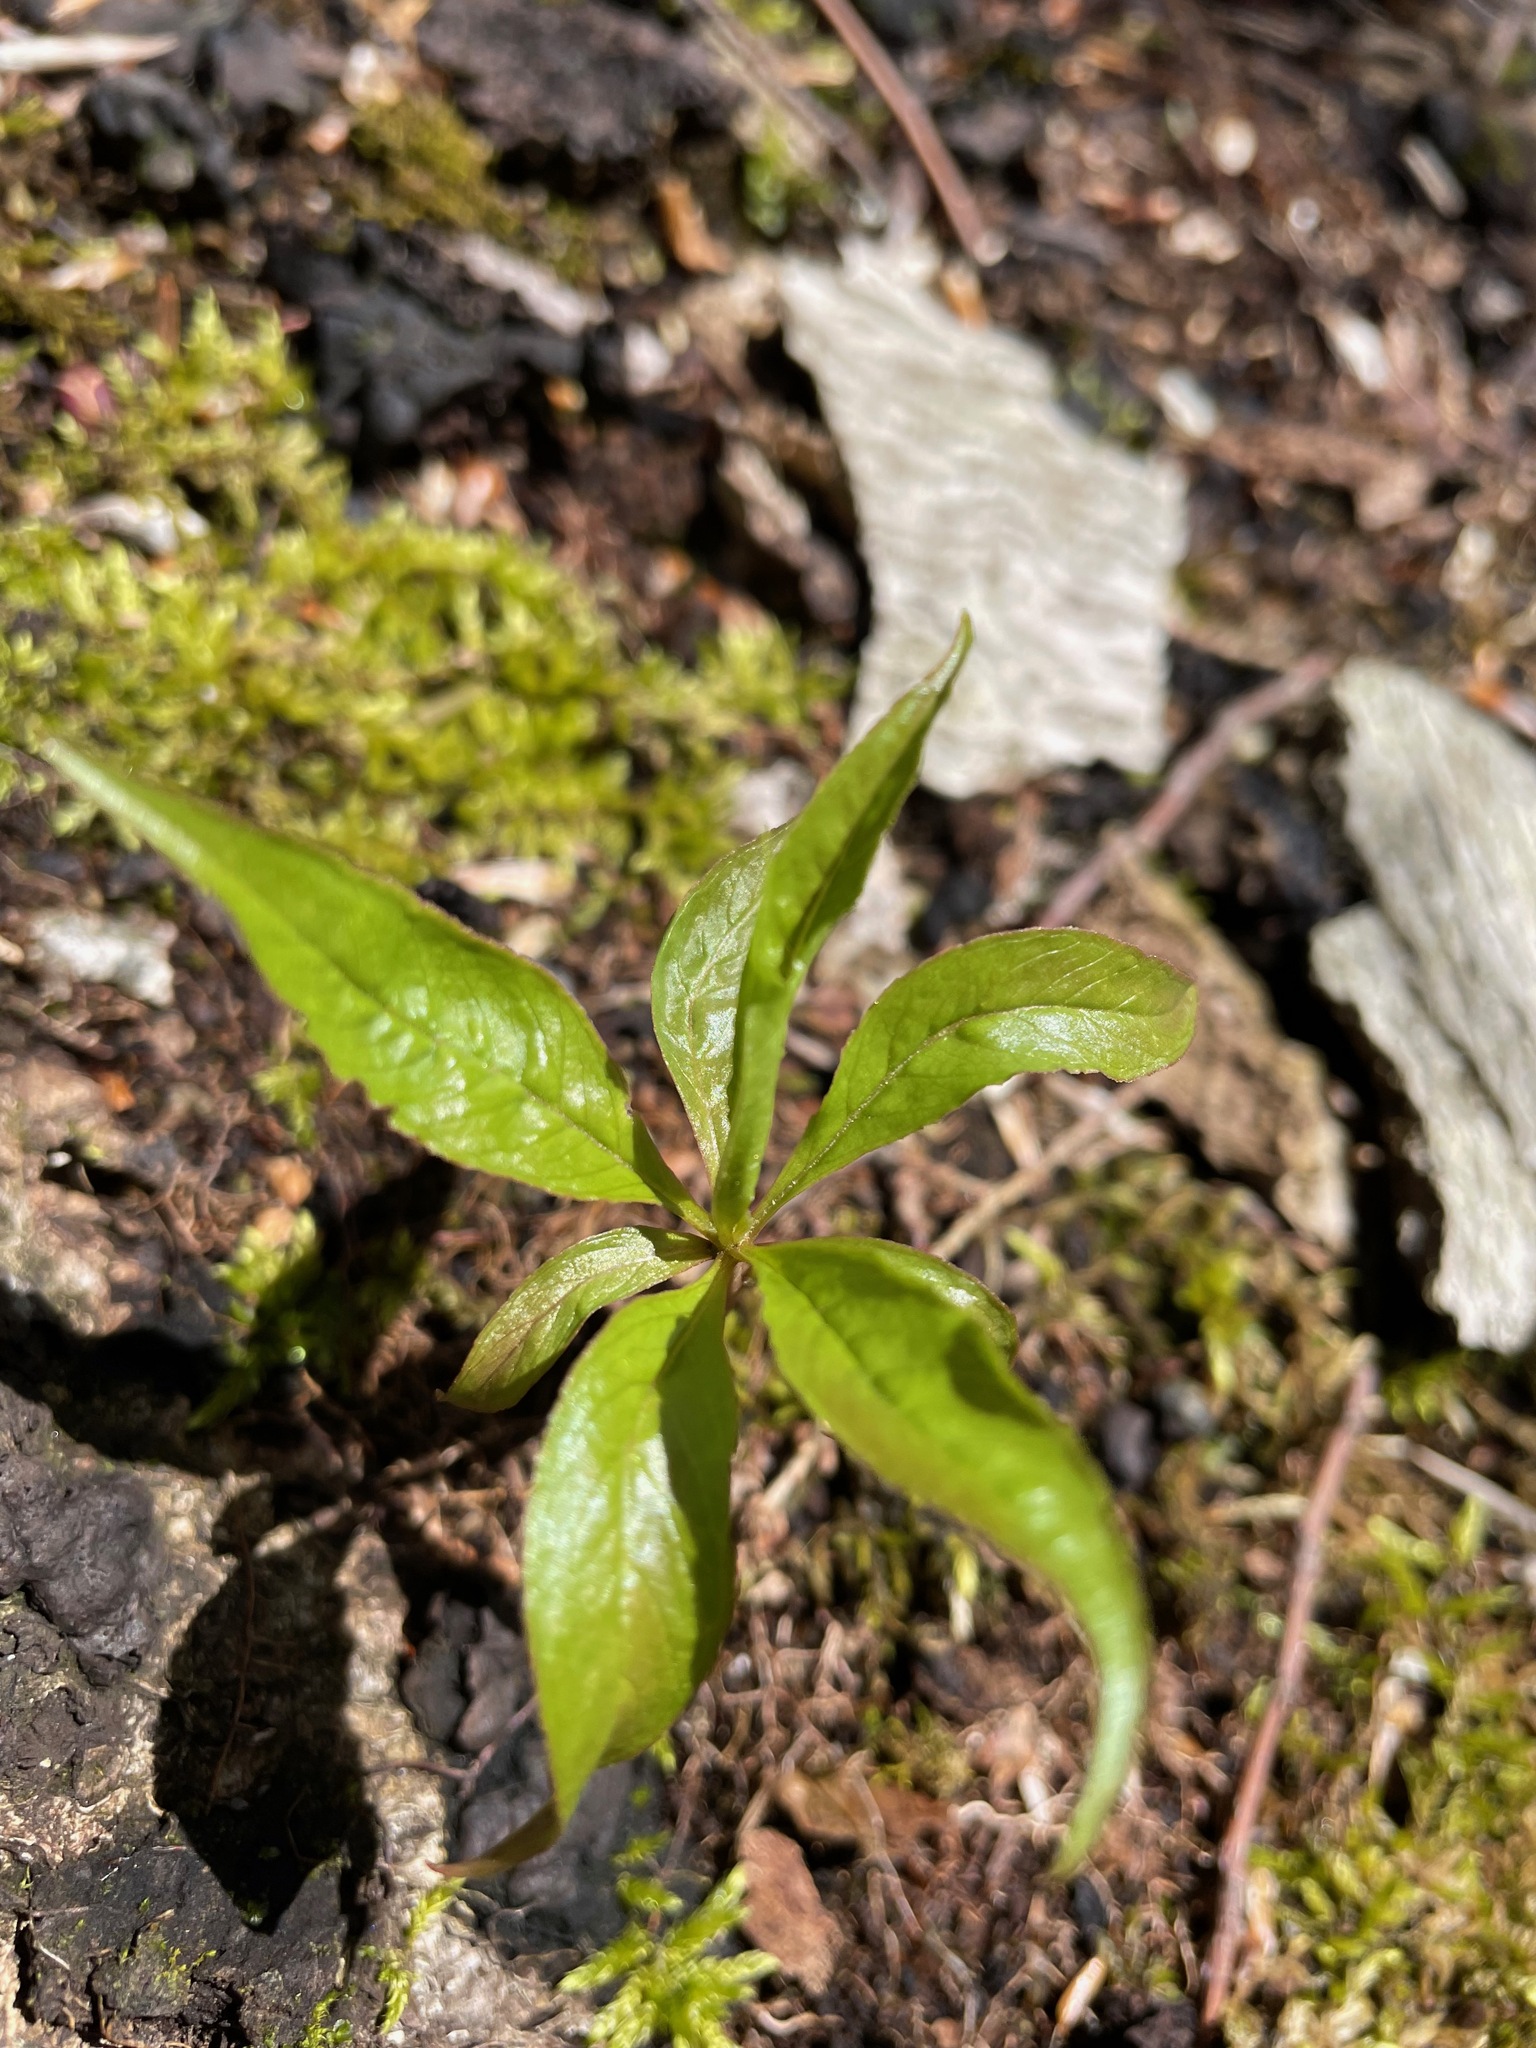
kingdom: Plantae
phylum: Tracheophyta
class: Magnoliopsida
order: Ericales
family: Primulaceae
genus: Lysimachia
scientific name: Lysimachia borealis
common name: American starflower
